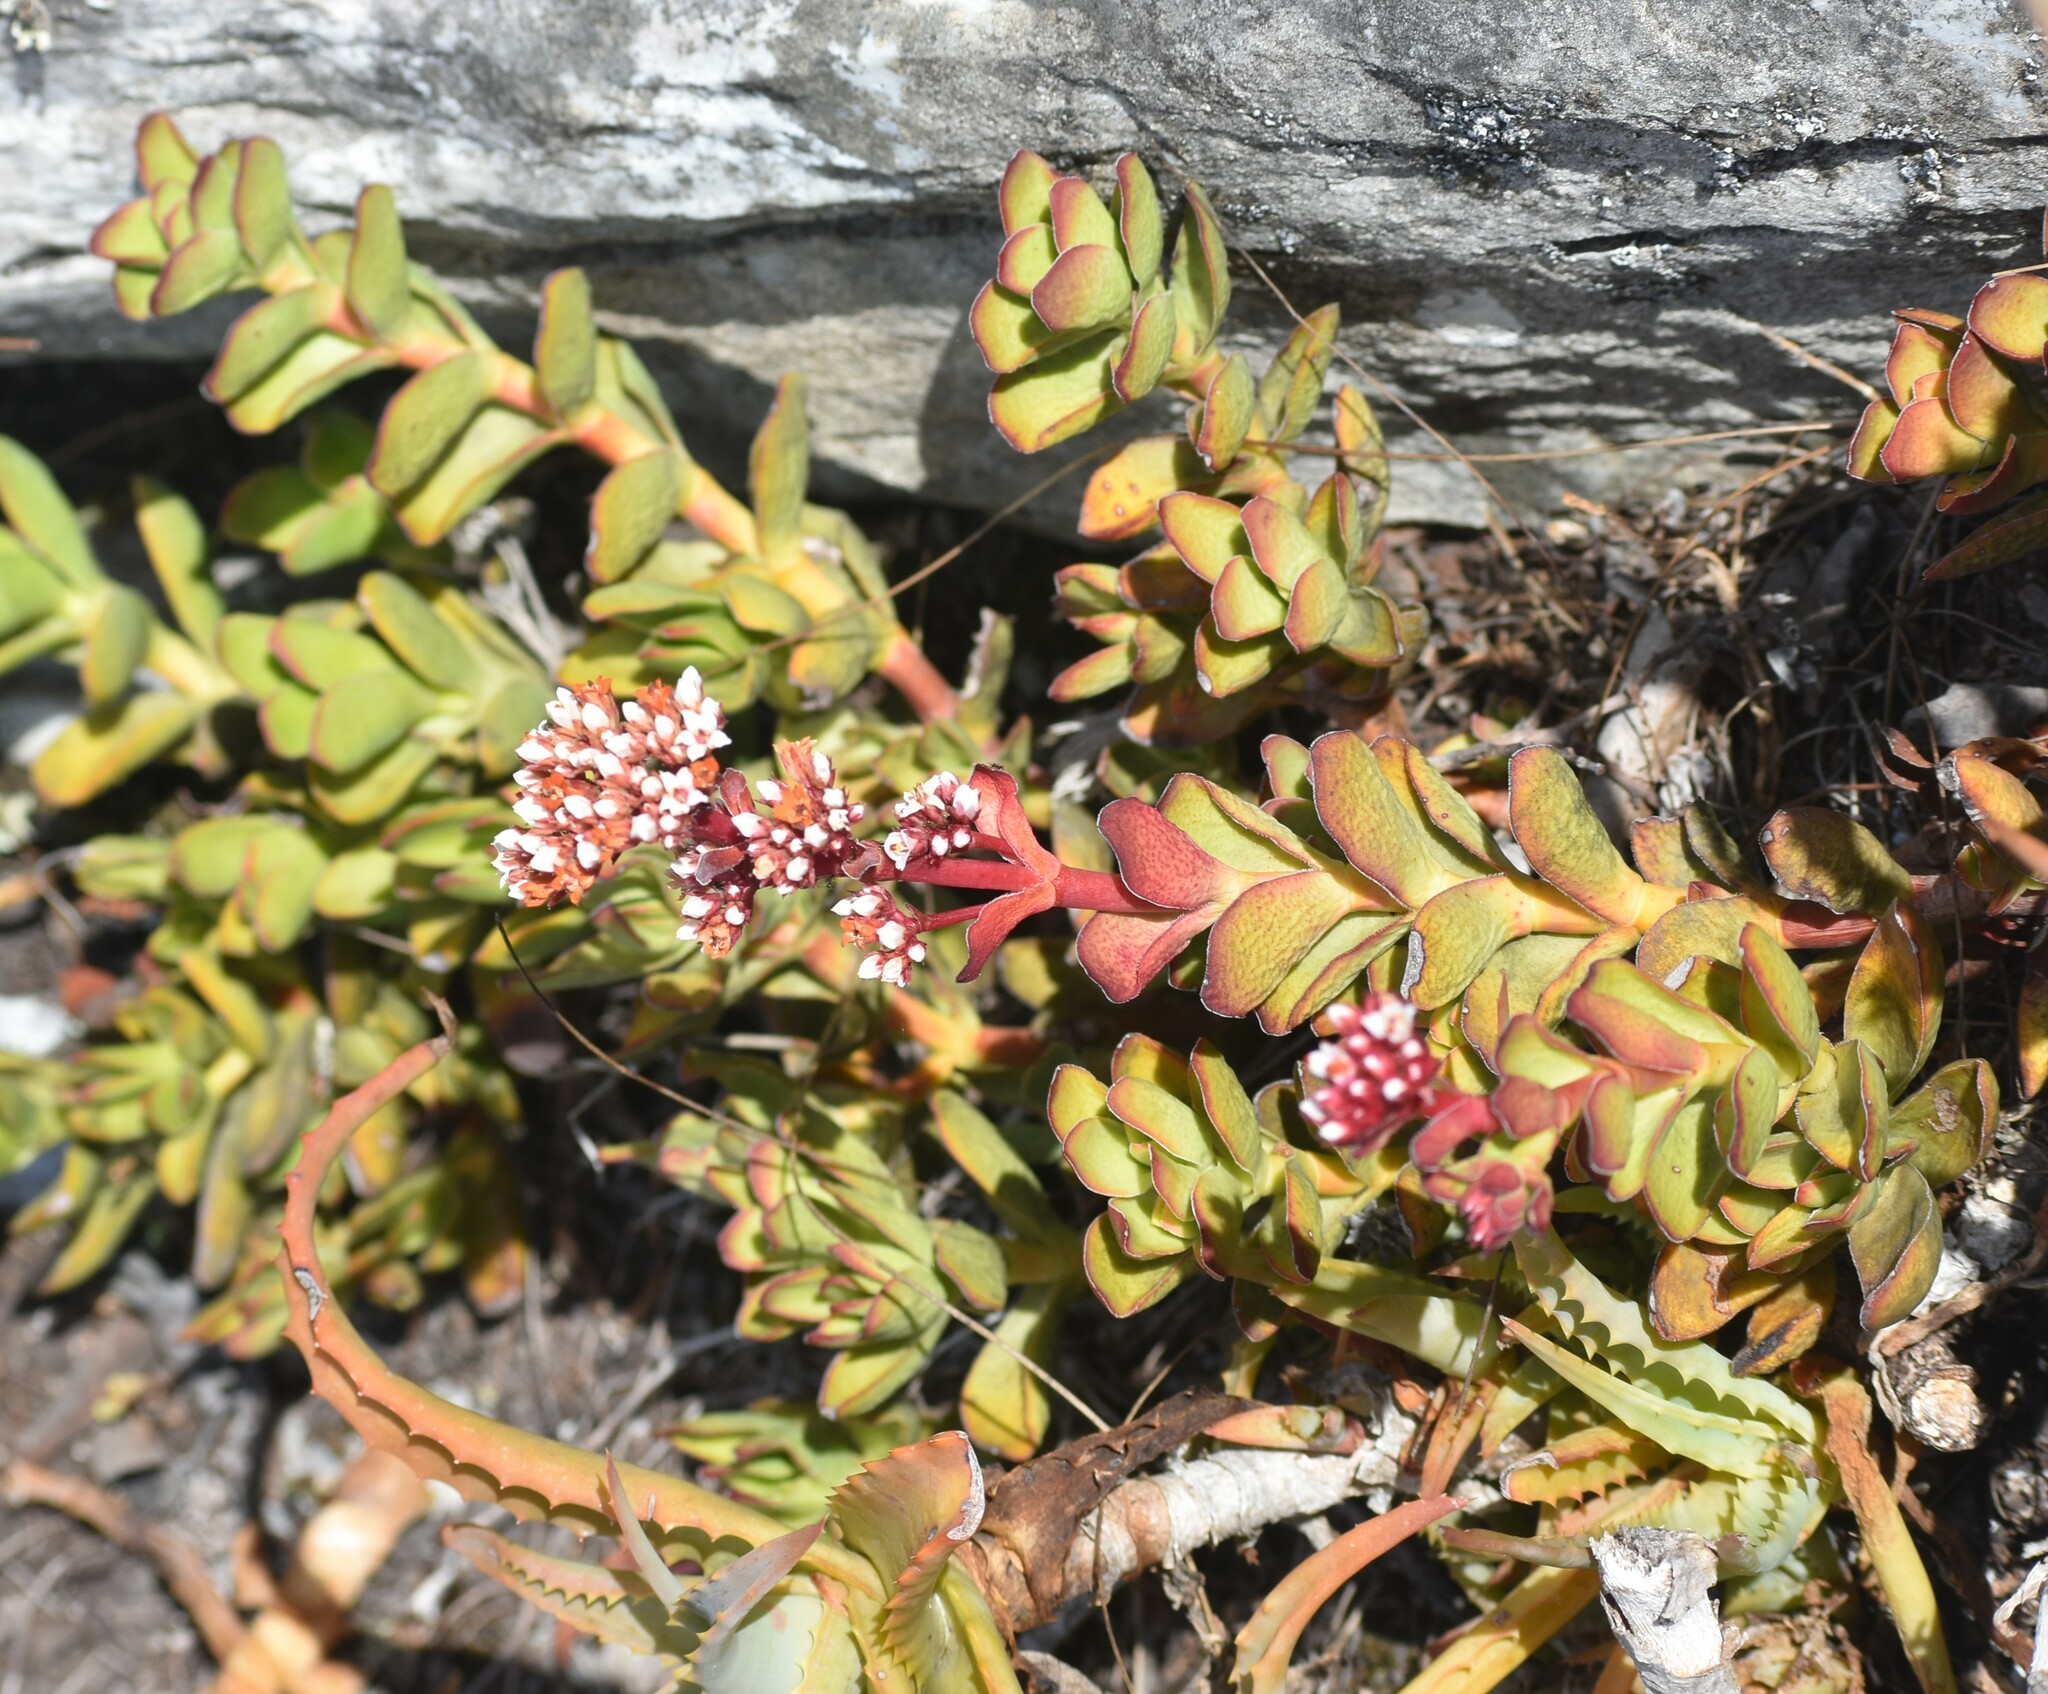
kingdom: Plantae
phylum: Tracheophyta
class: Magnoliopsida
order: Saxifragales
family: Crassulaceae
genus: Crassula
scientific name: Crassula rubricaulis
